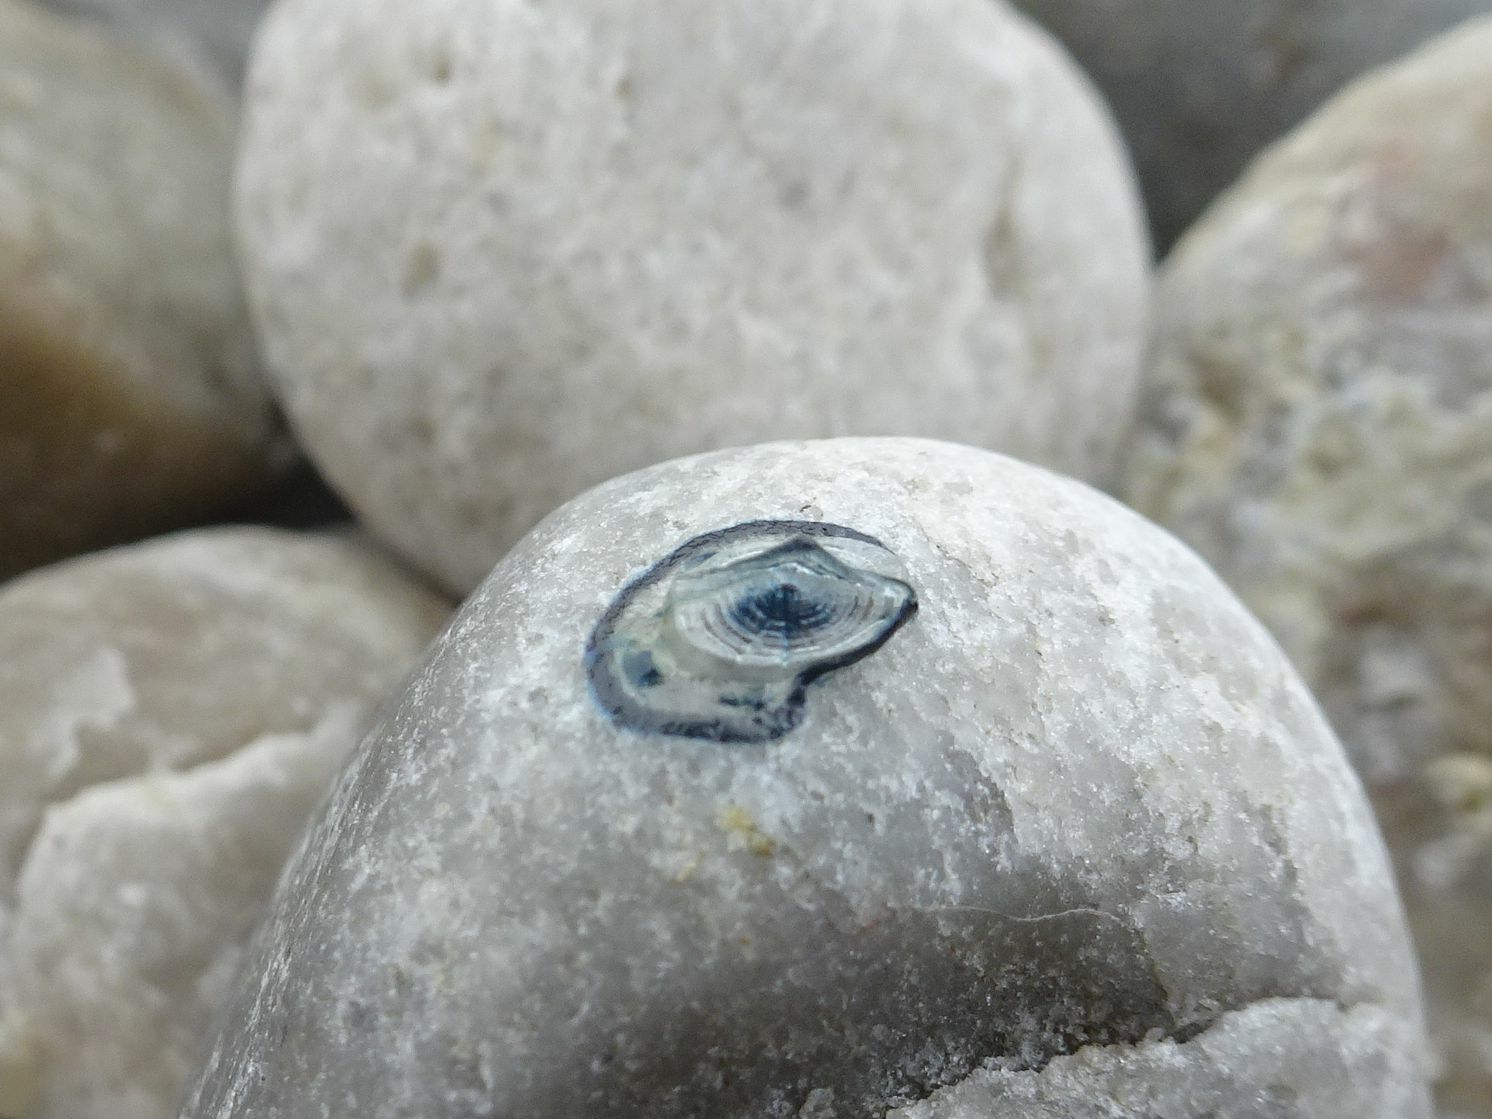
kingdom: Animalia
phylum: Cnidaria
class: Hydrozoa
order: Anthoathecata
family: Porpitidae
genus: Velella
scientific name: Velella velella
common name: By-the-wind-sailor
